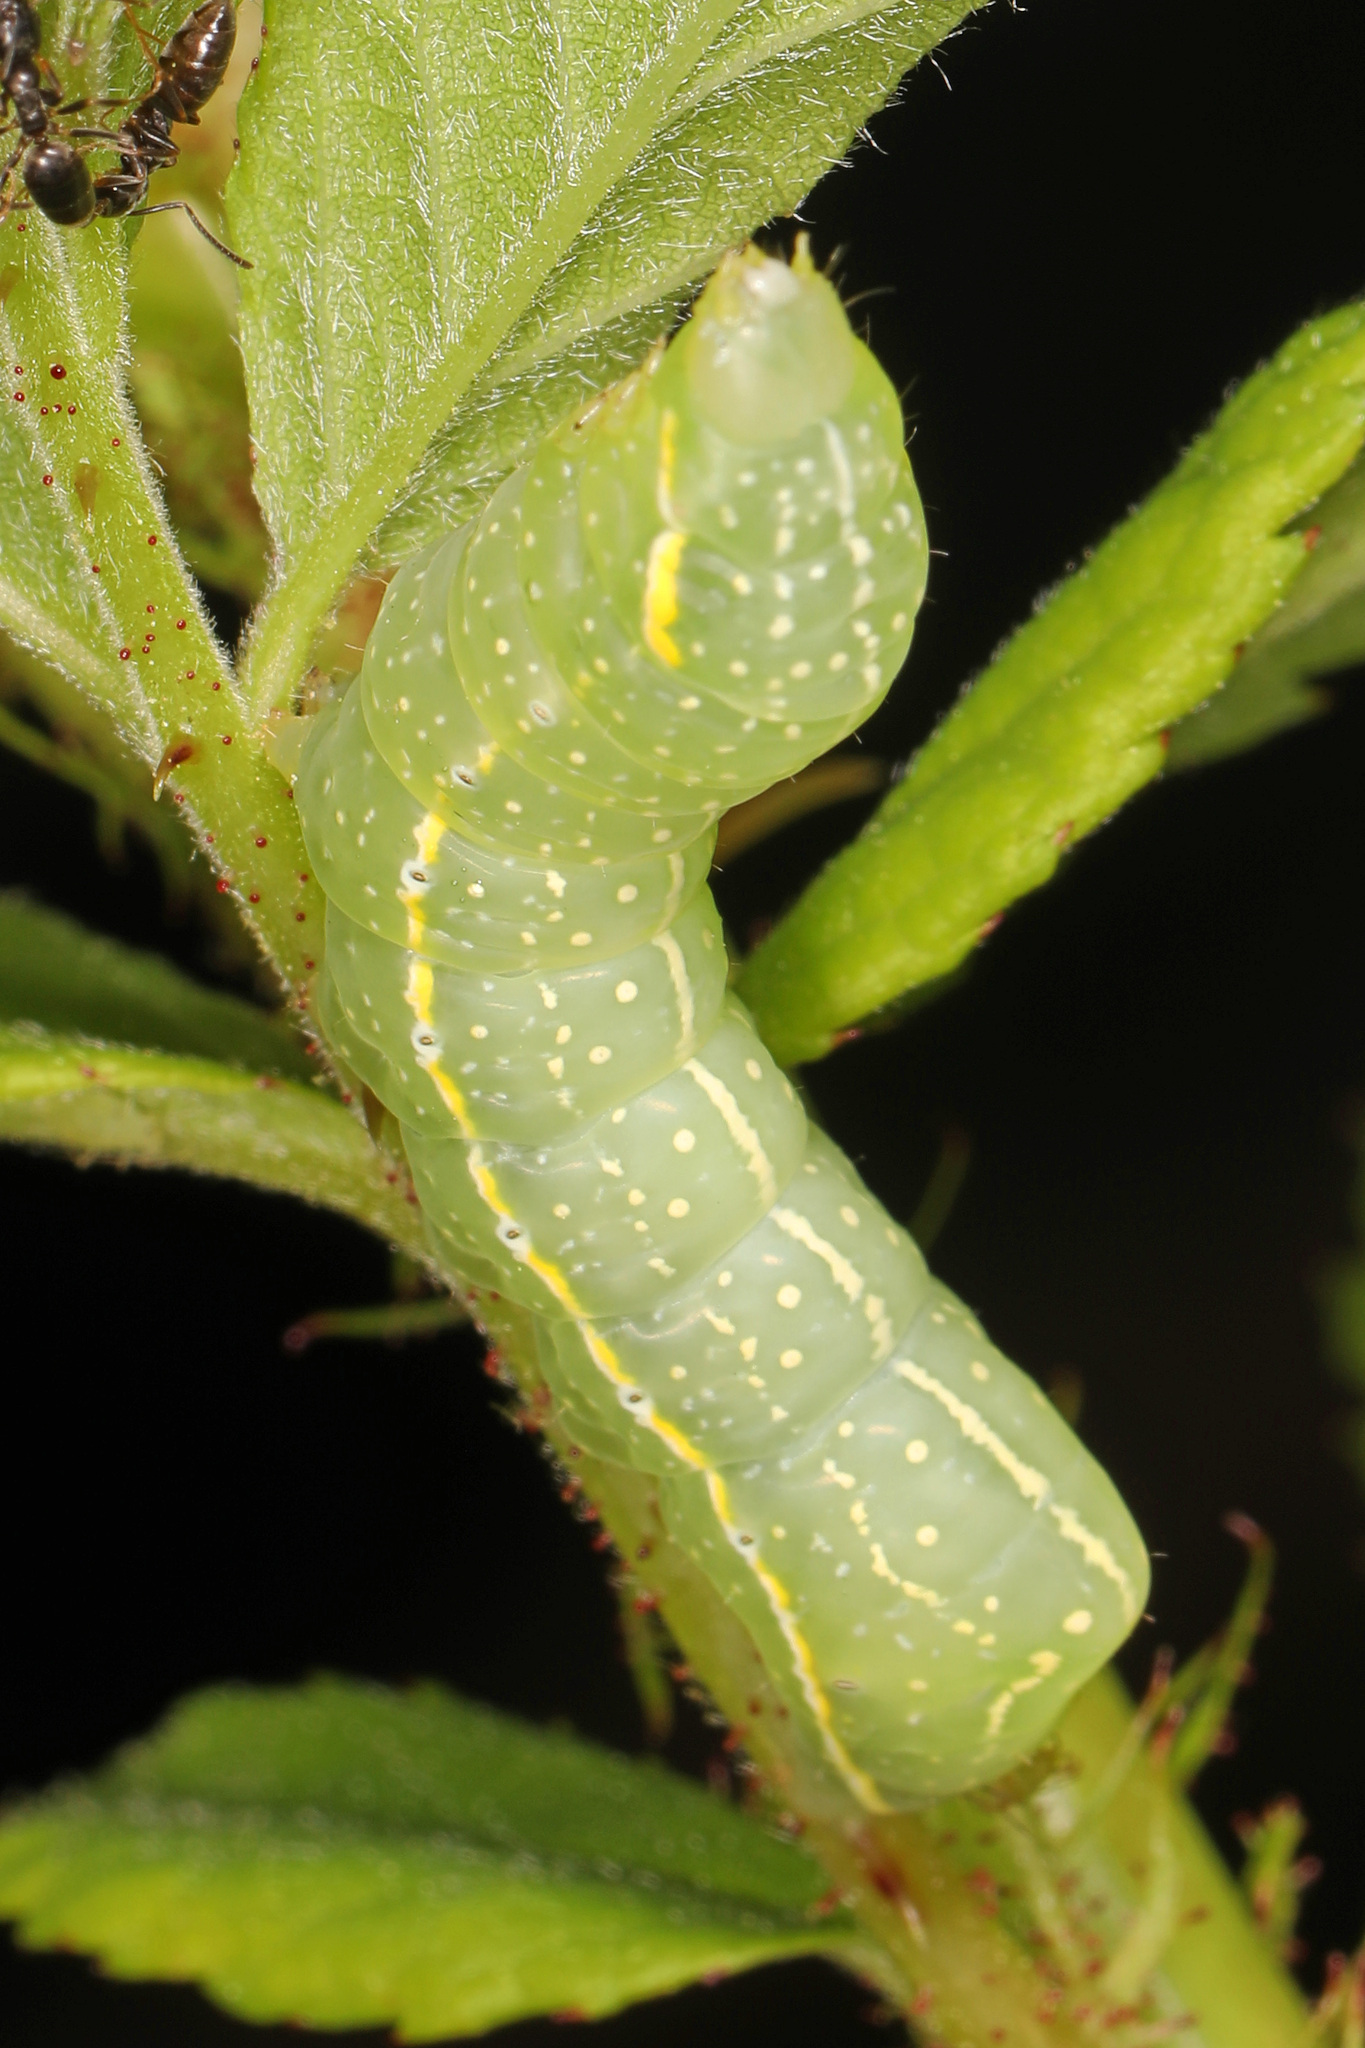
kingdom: Animalia
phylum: Arthropoda
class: Insecta
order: Lepidoptera
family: Noctuidae
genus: Amphipyra
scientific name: Amphipyra pyramidoides
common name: American copper underwing
